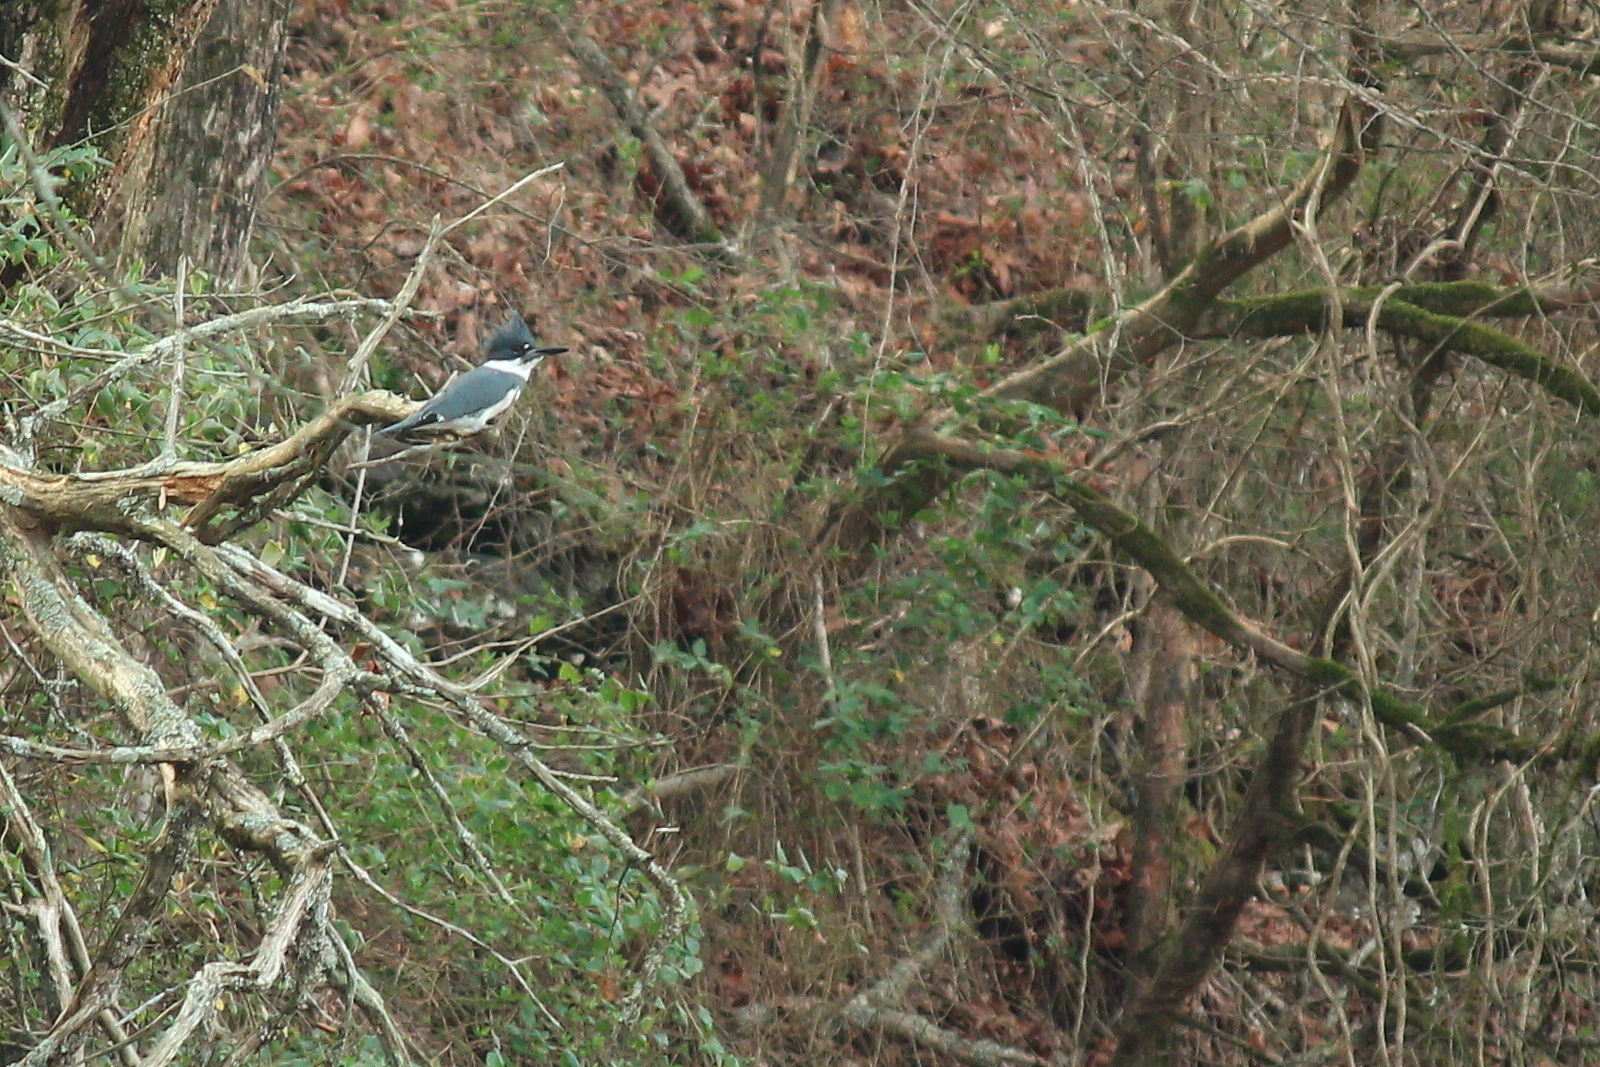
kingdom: Animalia
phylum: Chordata
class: Aves
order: Coraciiformes
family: Alcedinidae
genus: Megaceryle
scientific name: Megaceryle alcyon
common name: Belted kingfisher
